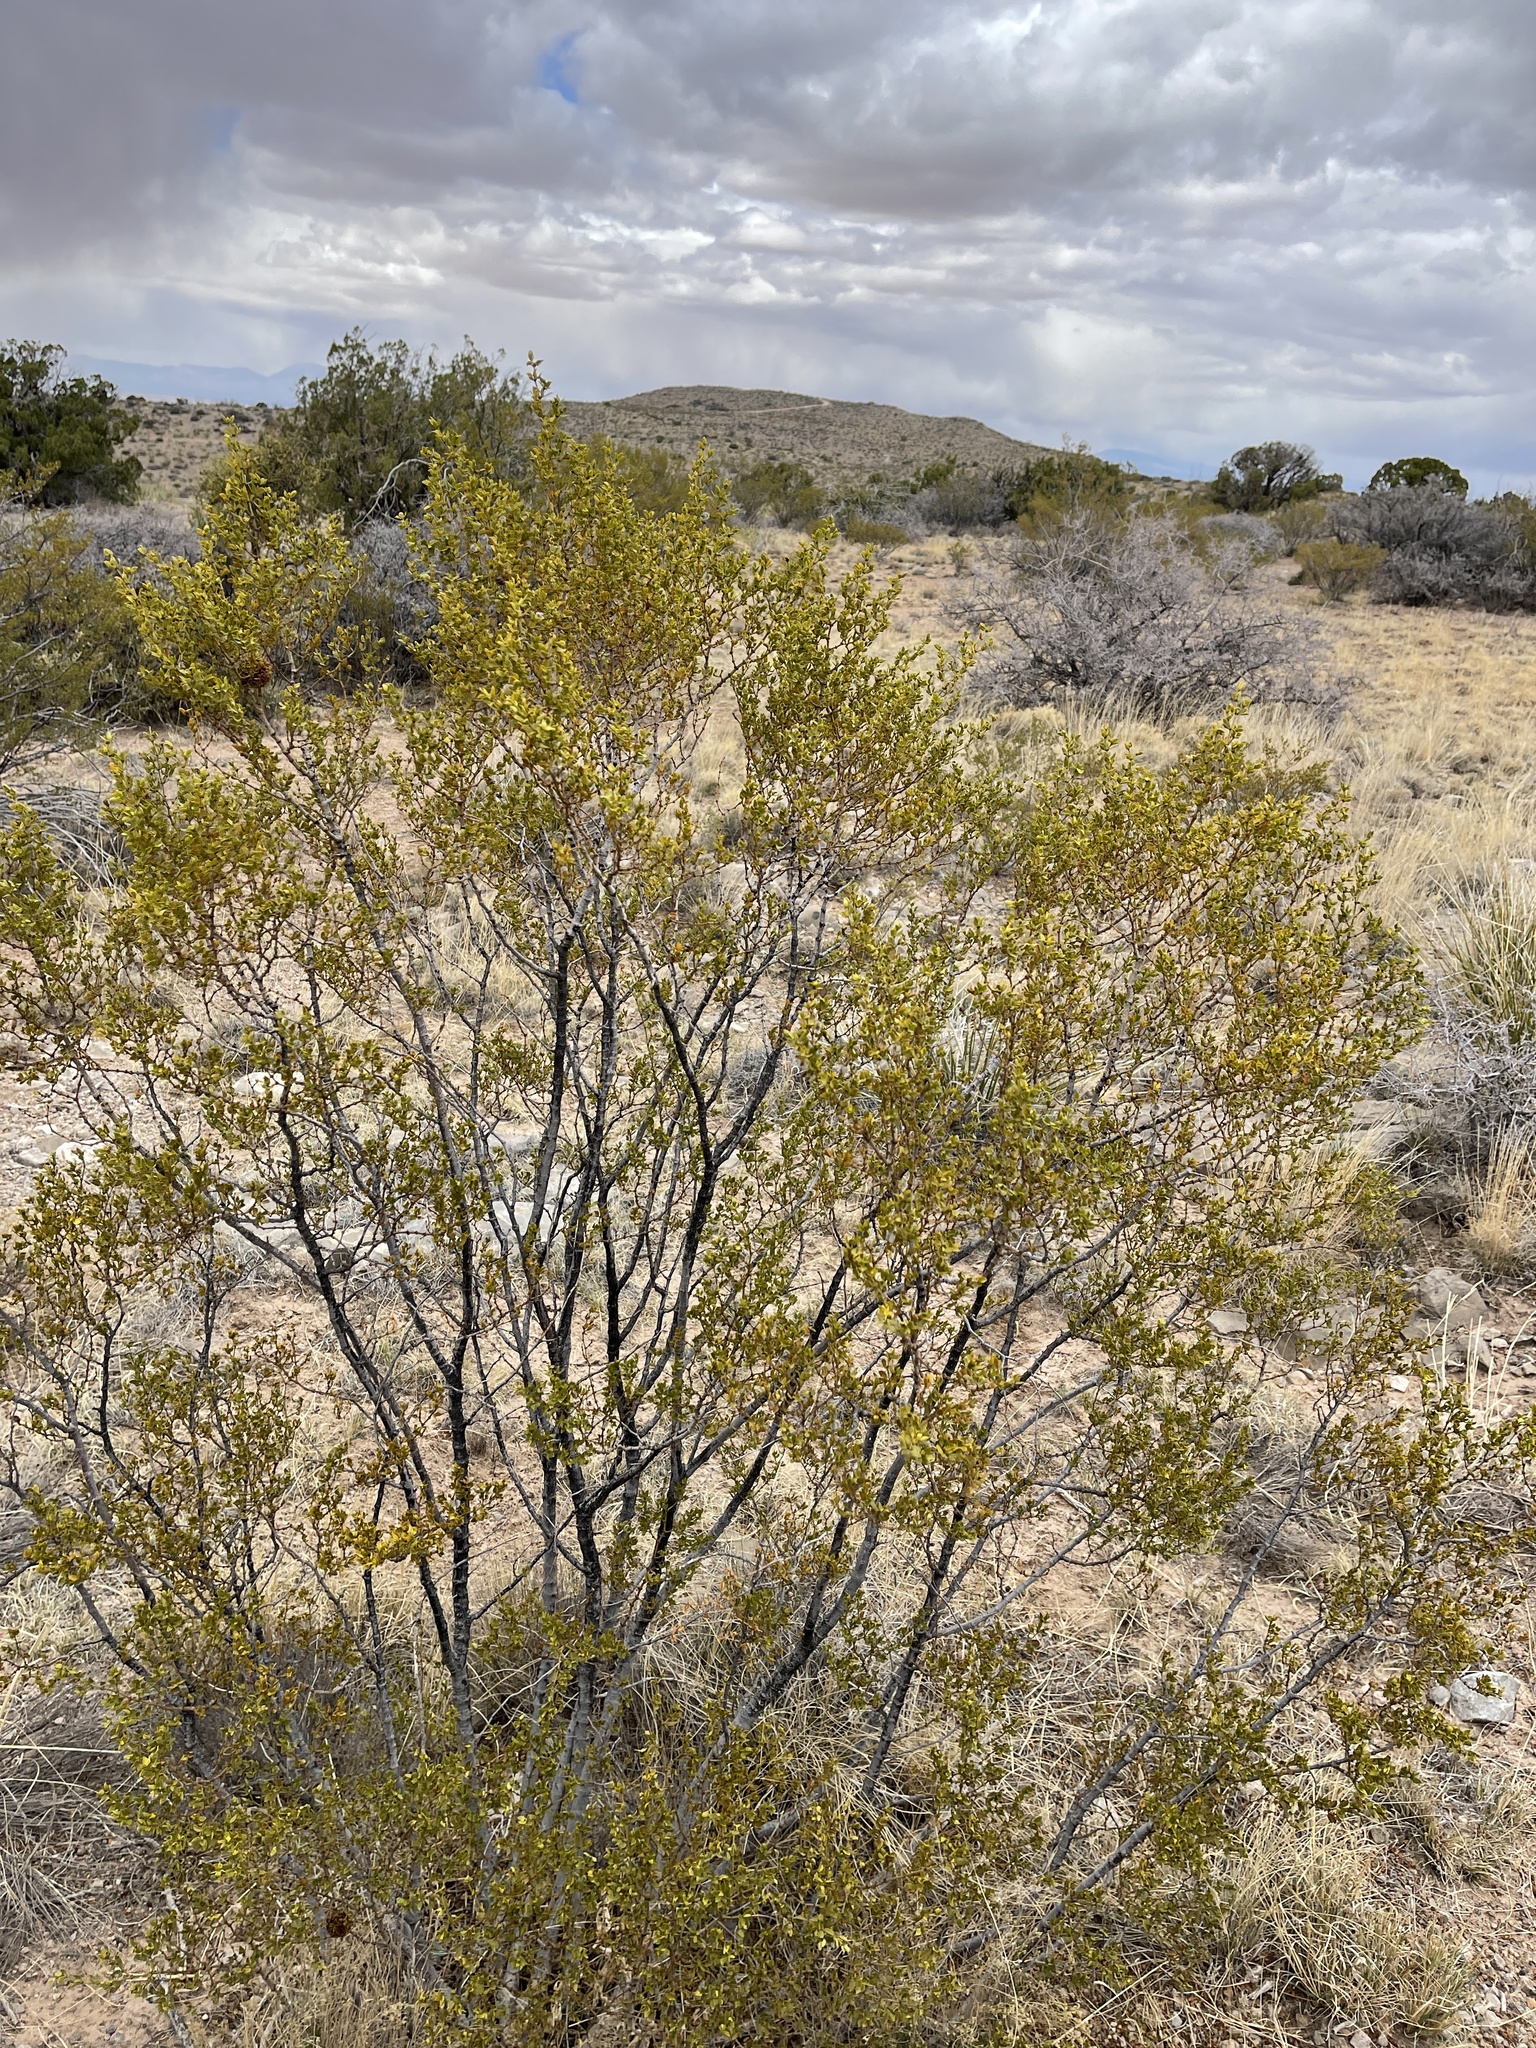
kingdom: Plantae
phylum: Tracheophyta
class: Magnoliopsida
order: Zygophyllales
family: Zygophyllaceae
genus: Larrea
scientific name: Larrea tridentata
